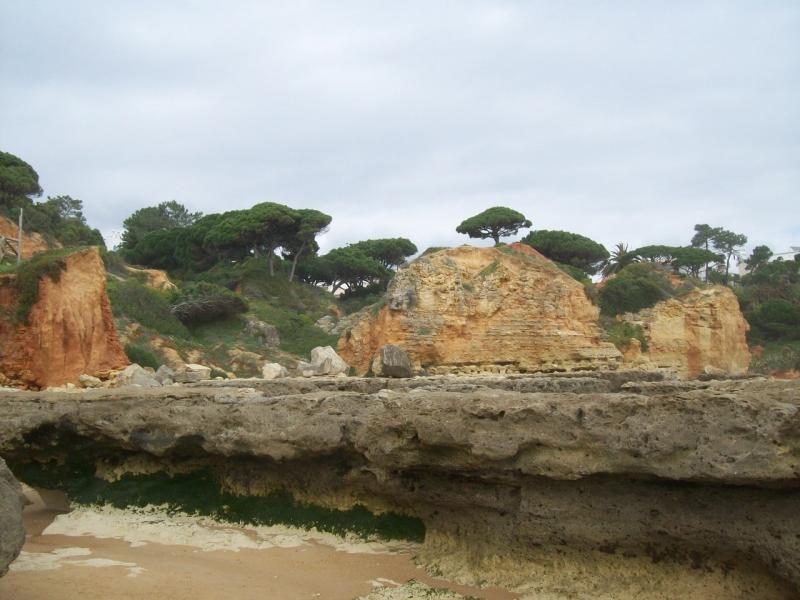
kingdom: Plantae
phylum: Tracheophyta
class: Pinopsida
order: Pinales
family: Pinaceae
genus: Pinus
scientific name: Pinus pinea
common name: Italian stone pine
